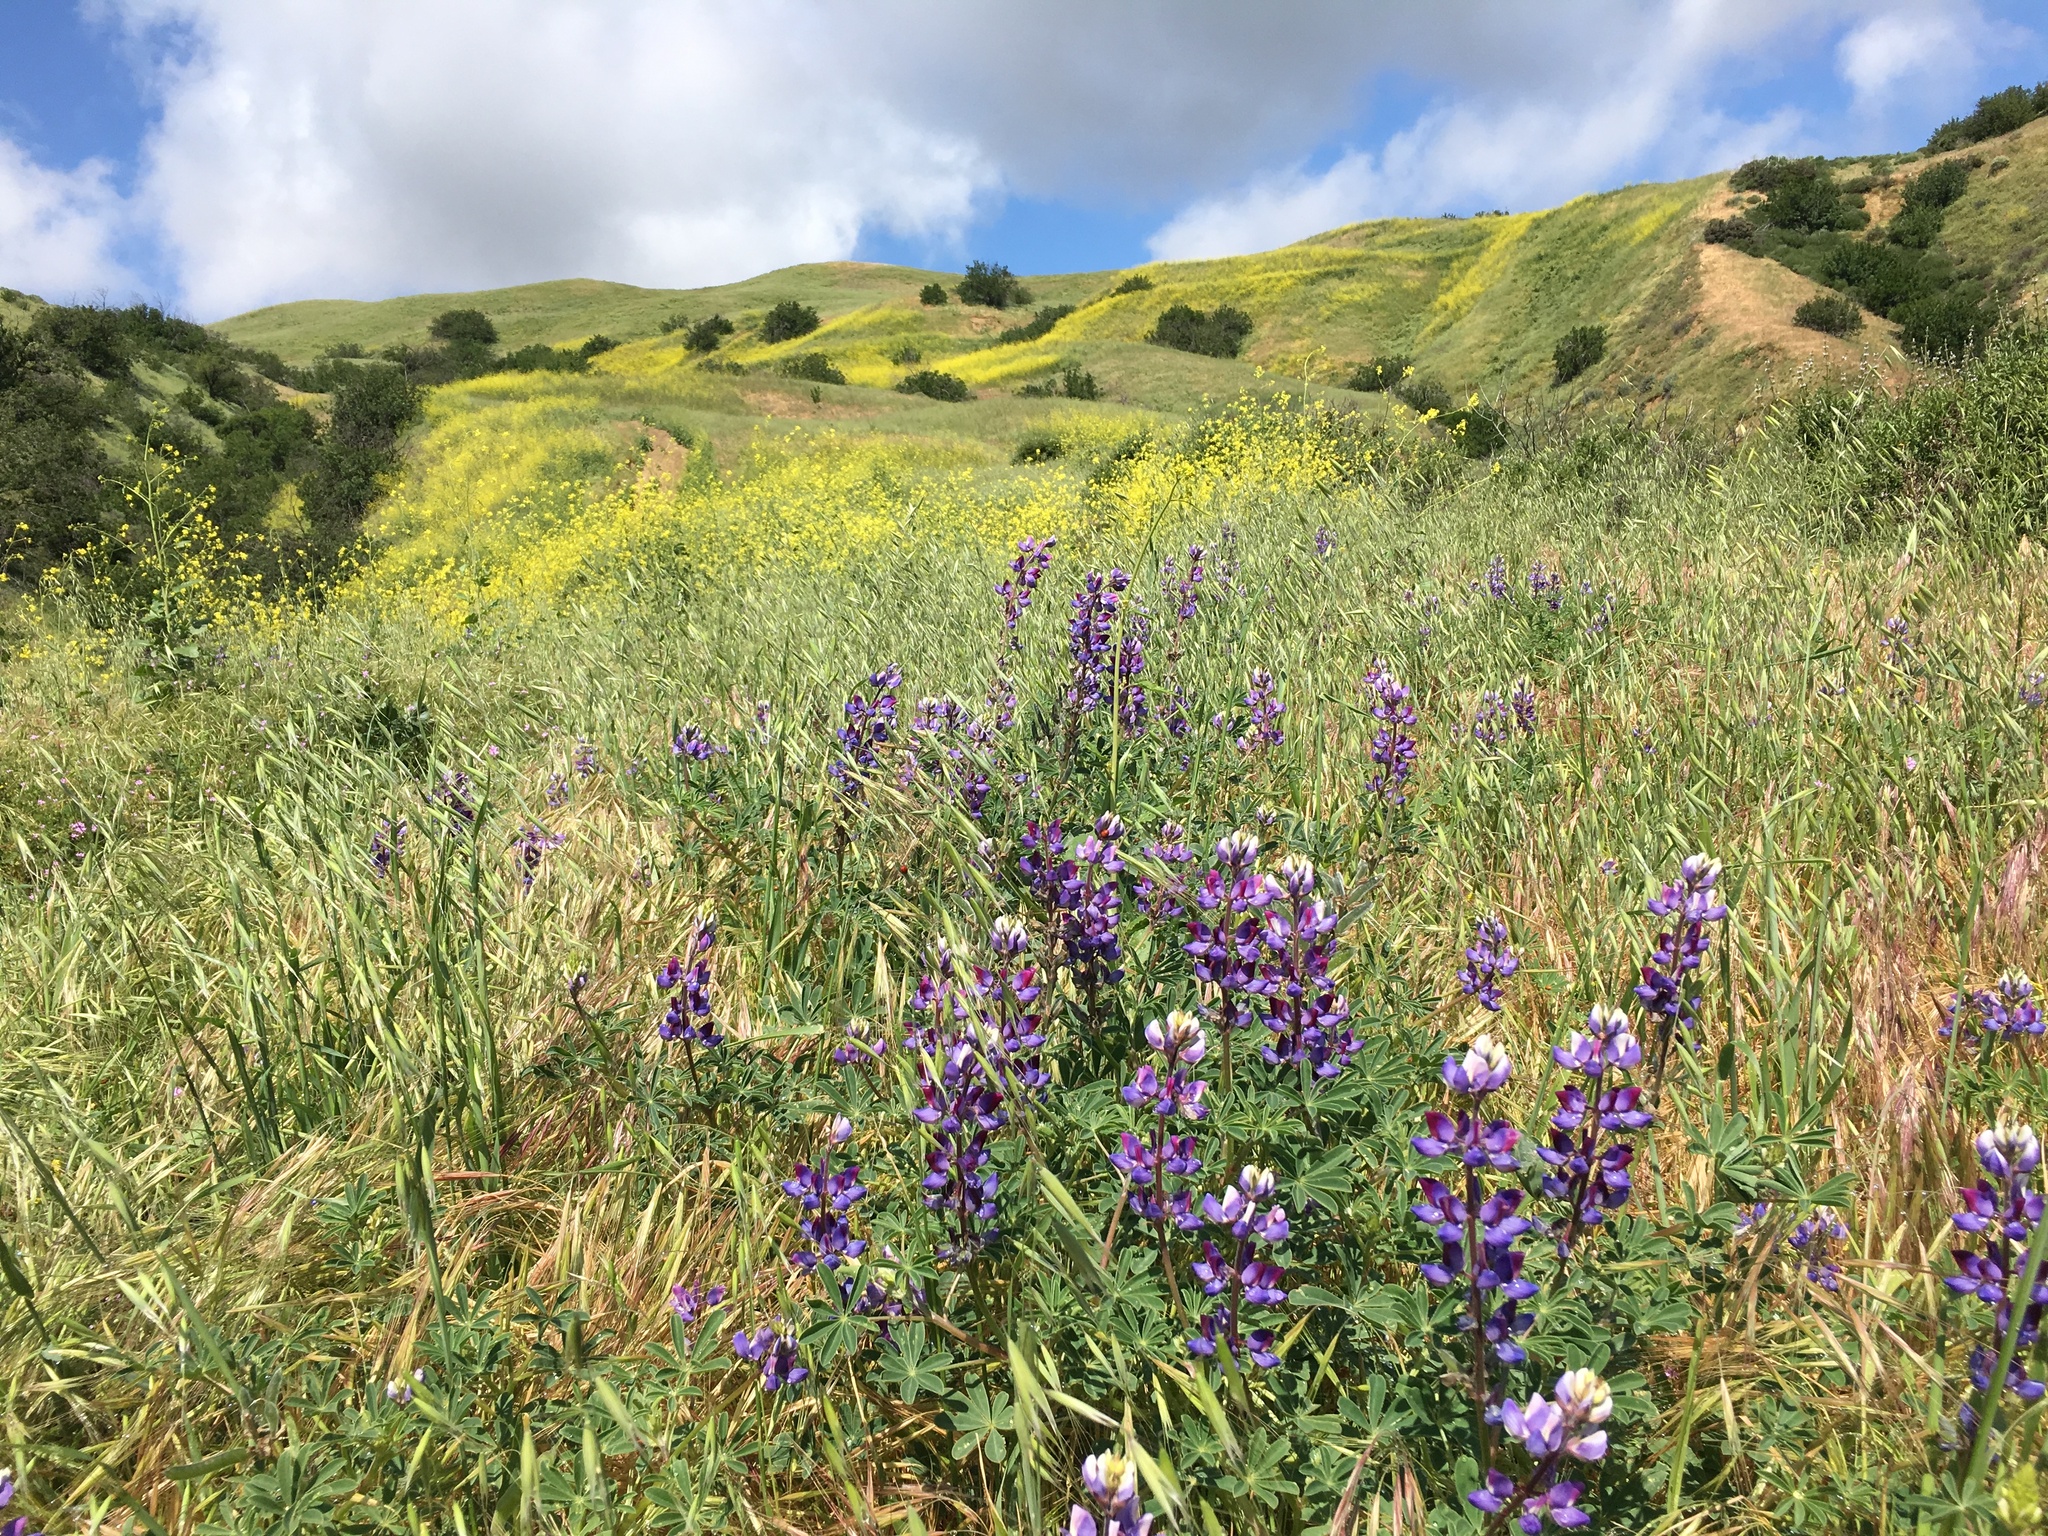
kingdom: Plantae
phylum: Tracheophyta
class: Magnoliopsida
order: Fabales
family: Fabaceae
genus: Lupinus
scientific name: Lupinus succulentus
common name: Arroyo lupine
